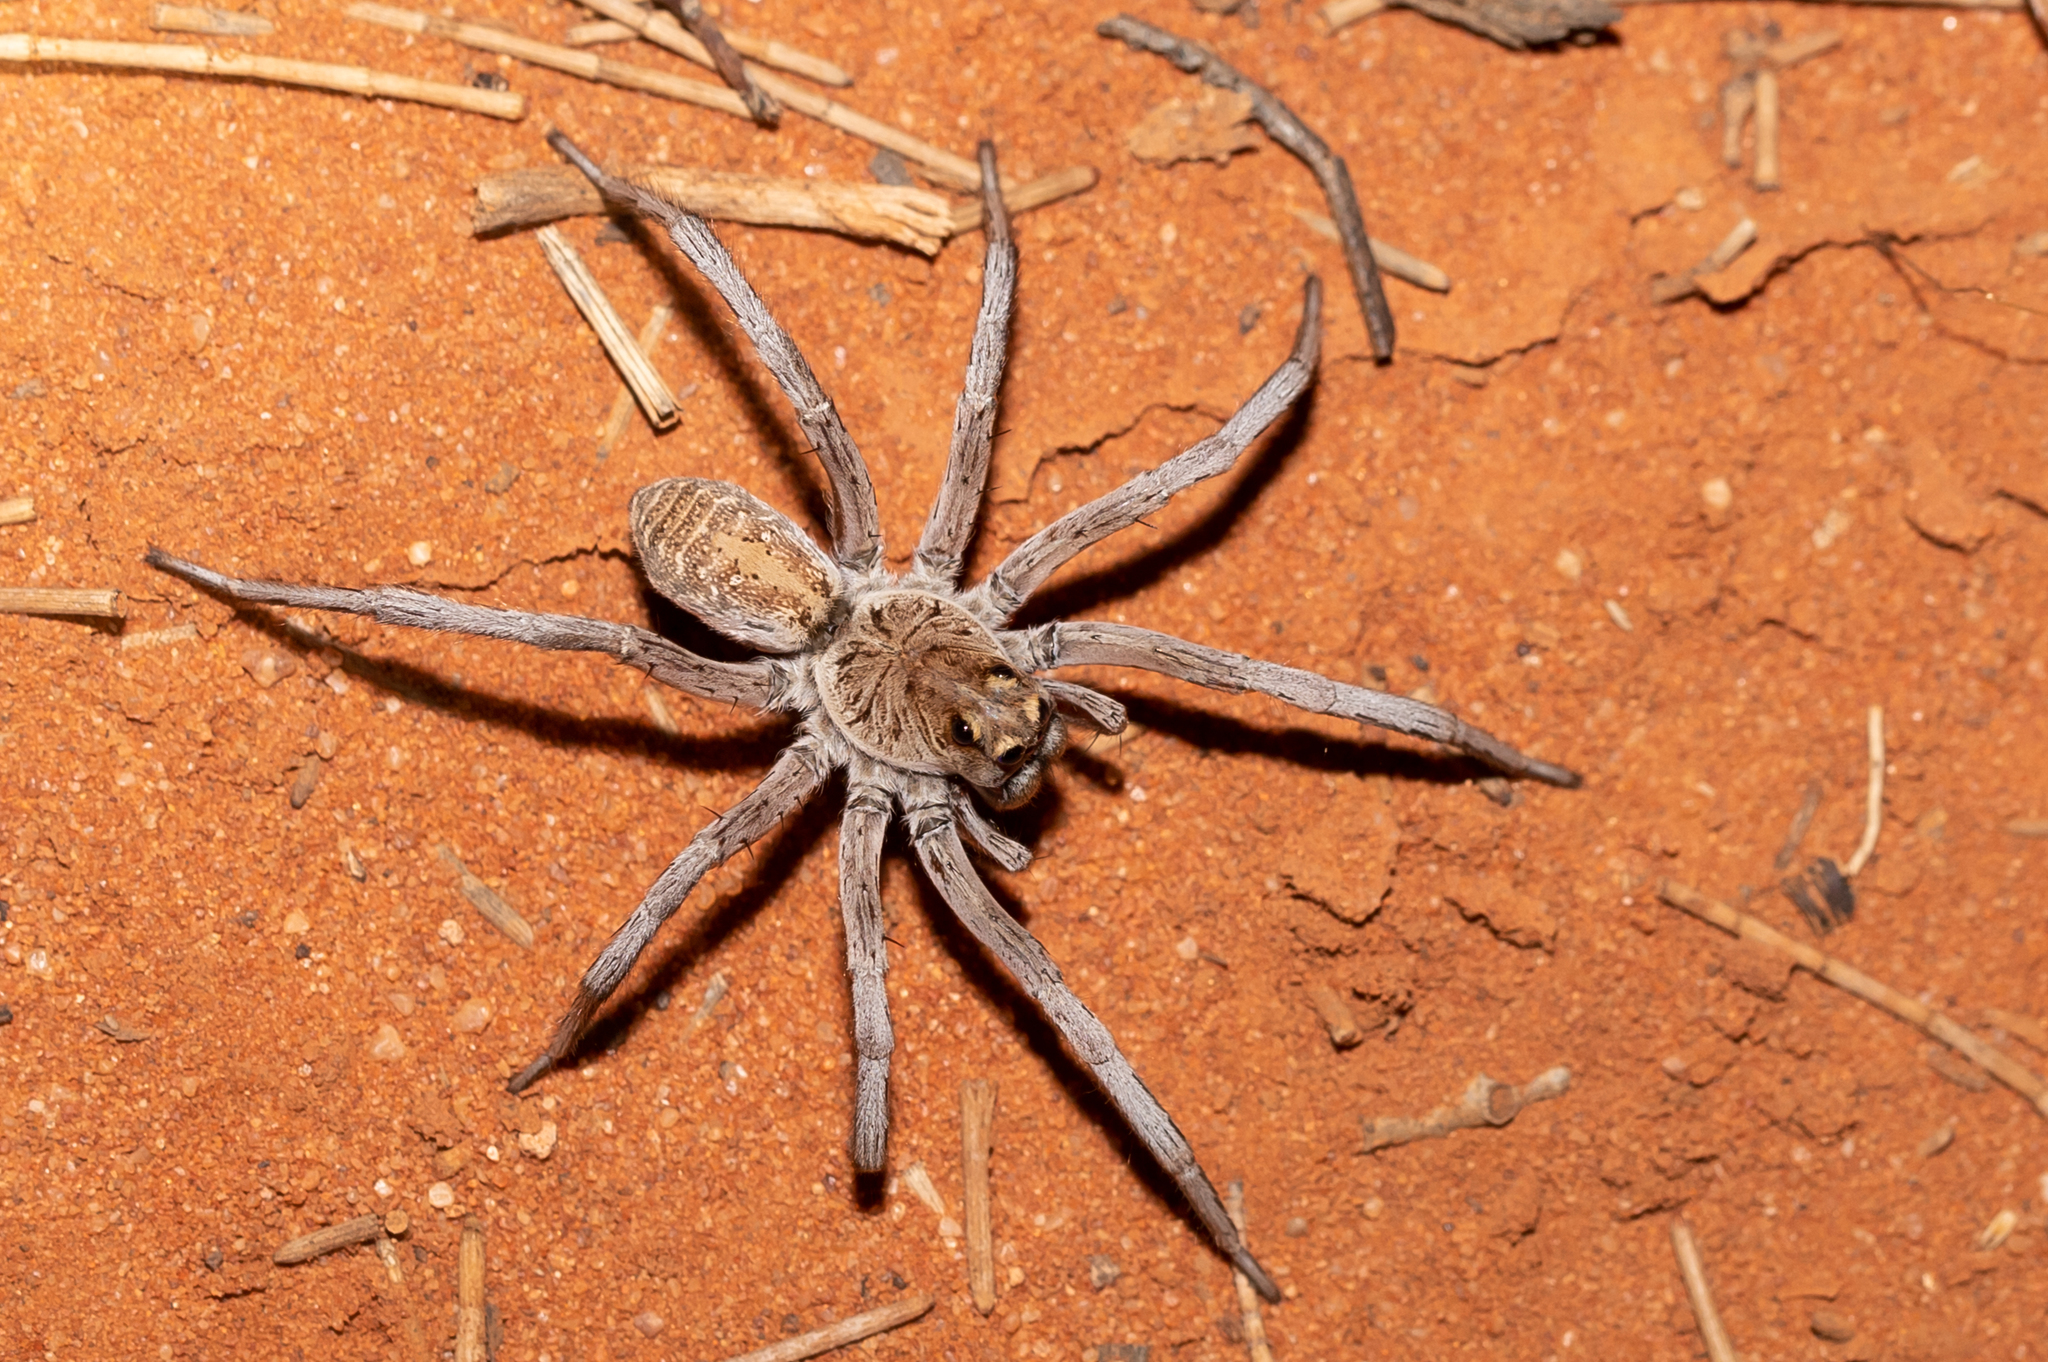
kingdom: Animalia
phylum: Arthropoda
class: Arachnida
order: Araneae
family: Lycosidae
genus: Hoggicosa
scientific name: Hoggicosa alfi
